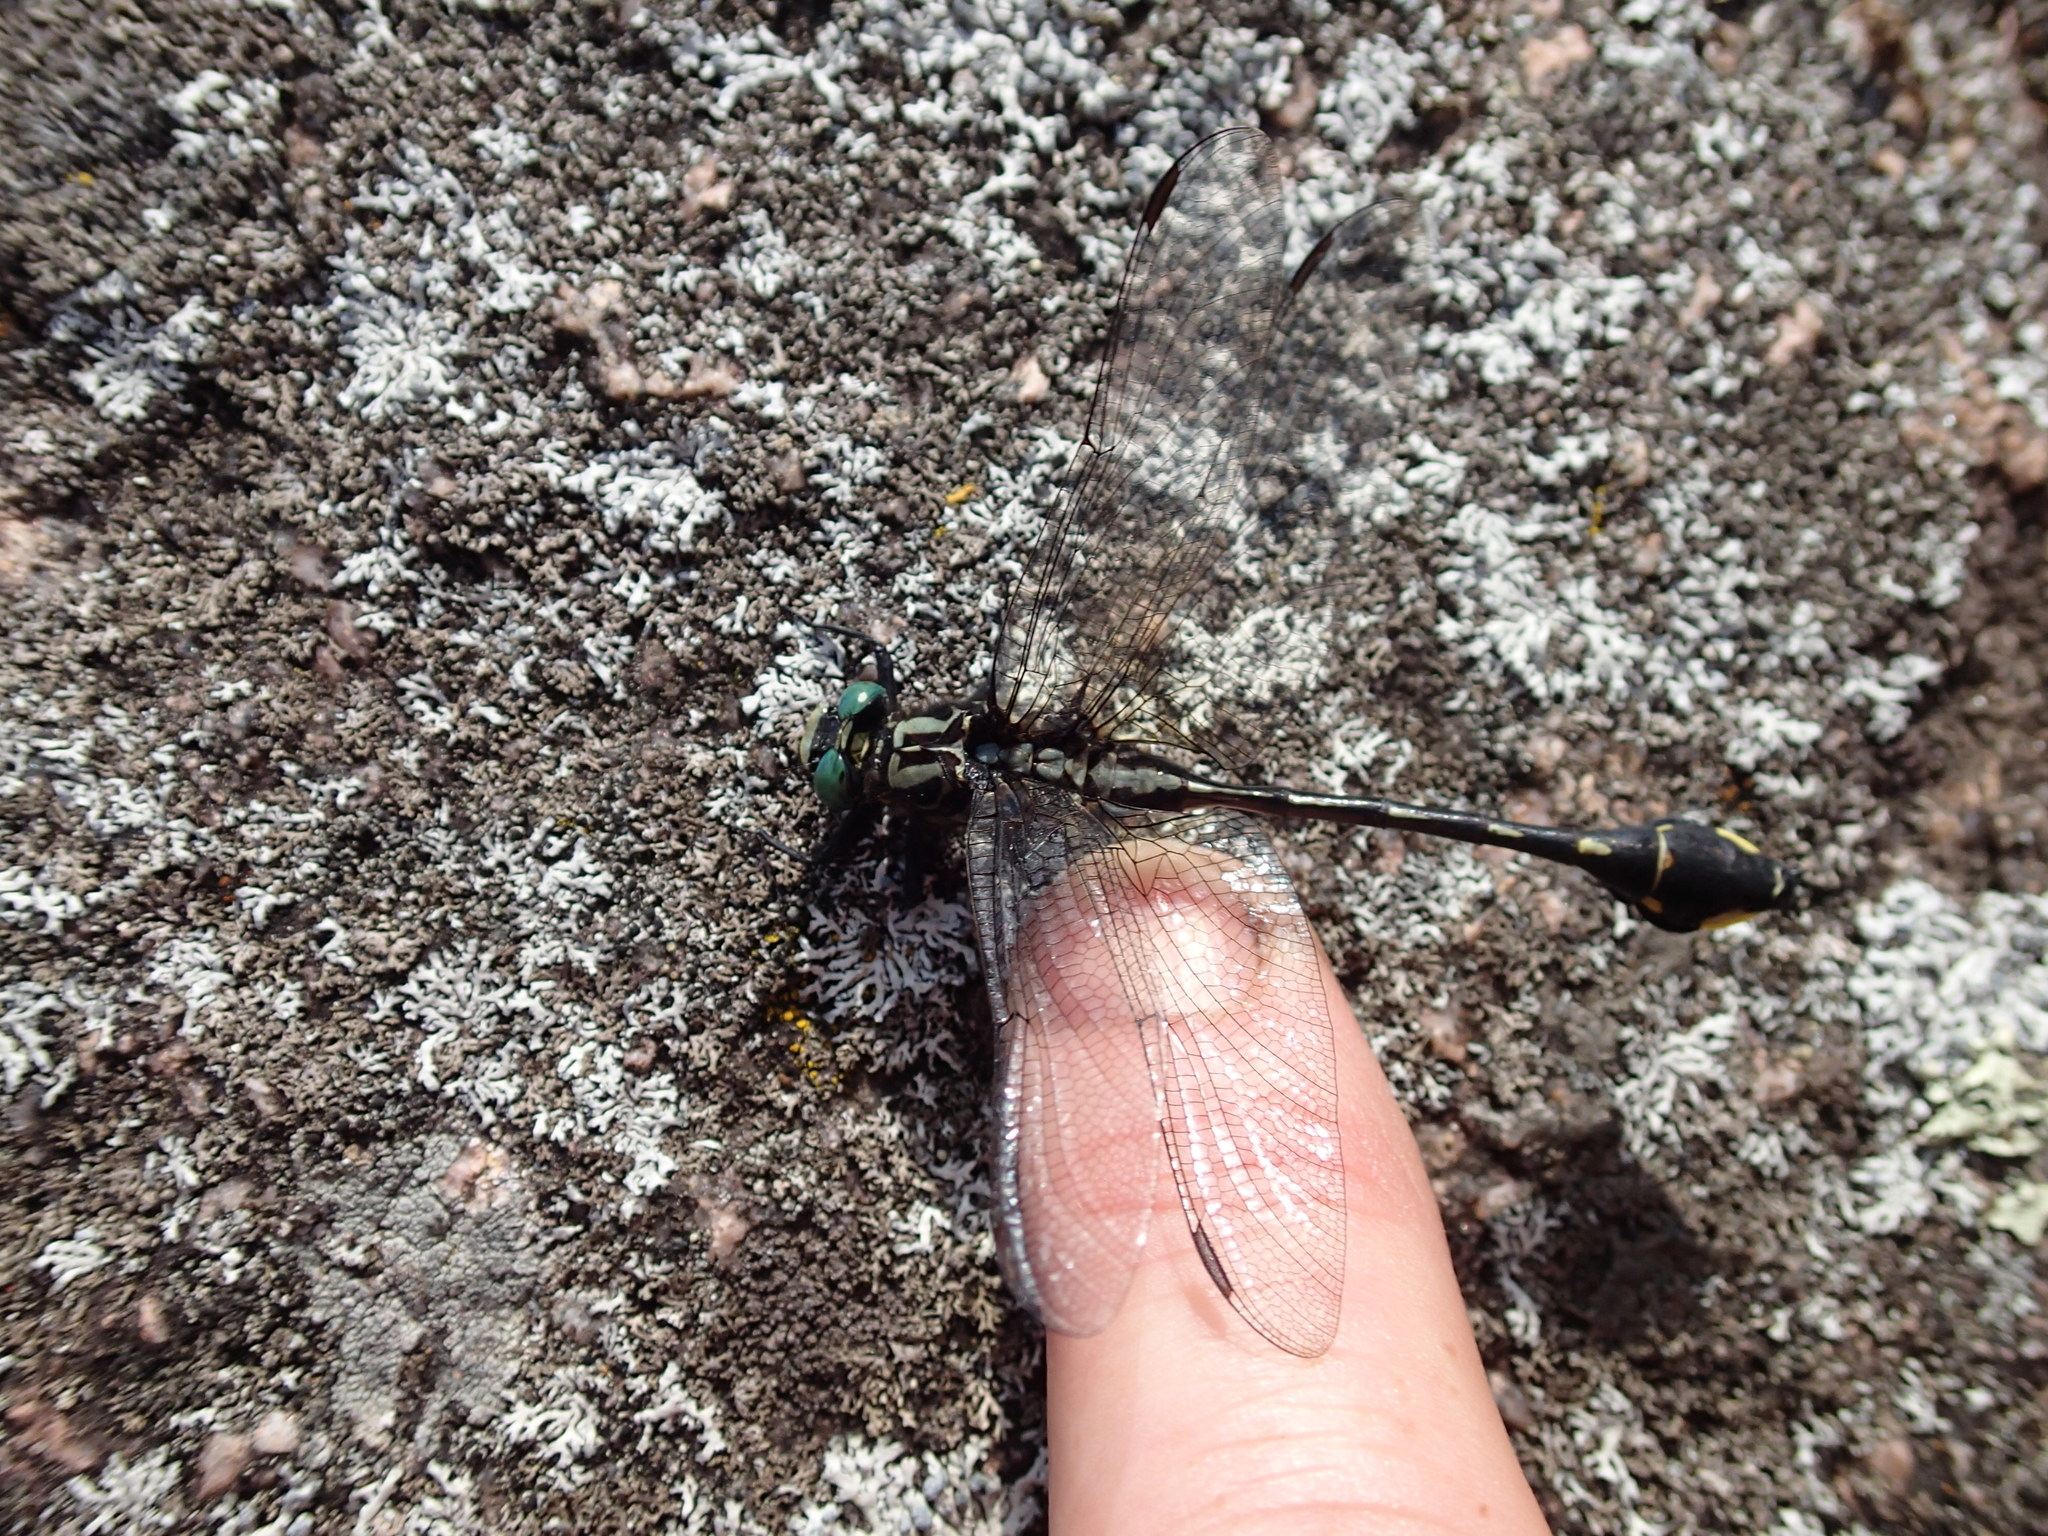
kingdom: Animalia
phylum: Arthropoda
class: Insecta
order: Odonata
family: Gomphidae
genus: Gomphurus
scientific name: Gomphurus vastus
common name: Cobra clubtail
